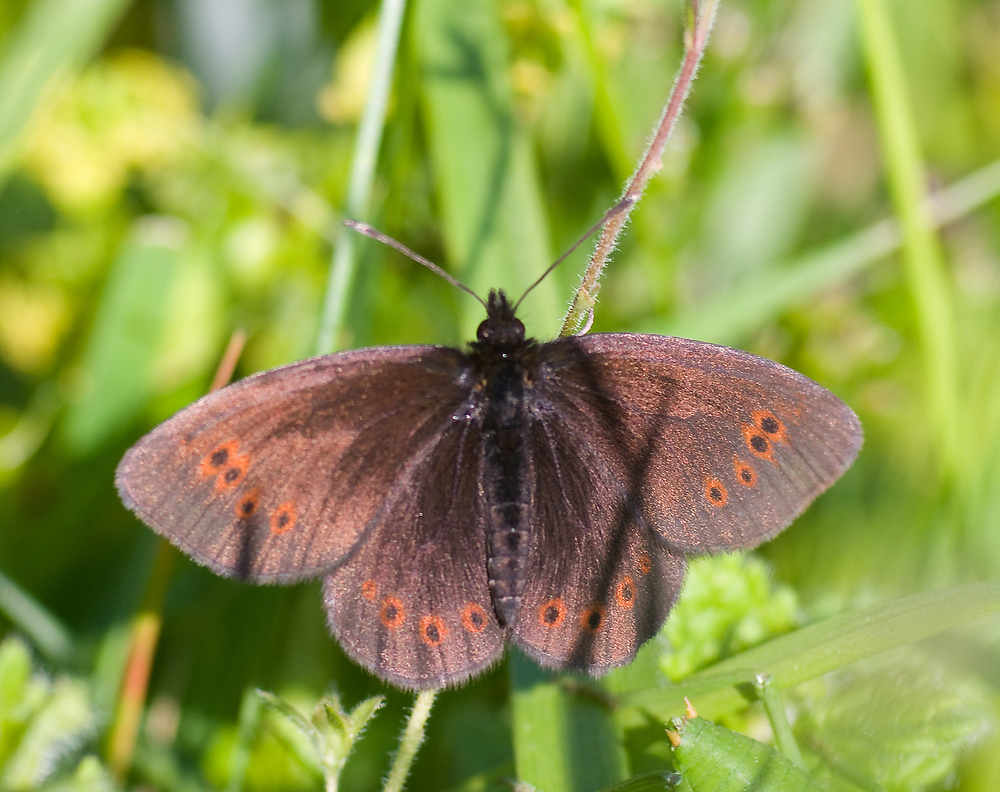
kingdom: Animalia
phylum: Arthropoda
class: Insecta
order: Lepidoptera
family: Nymphalidae
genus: Erebia
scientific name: Erebia epiphron
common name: Mountain ringlet
